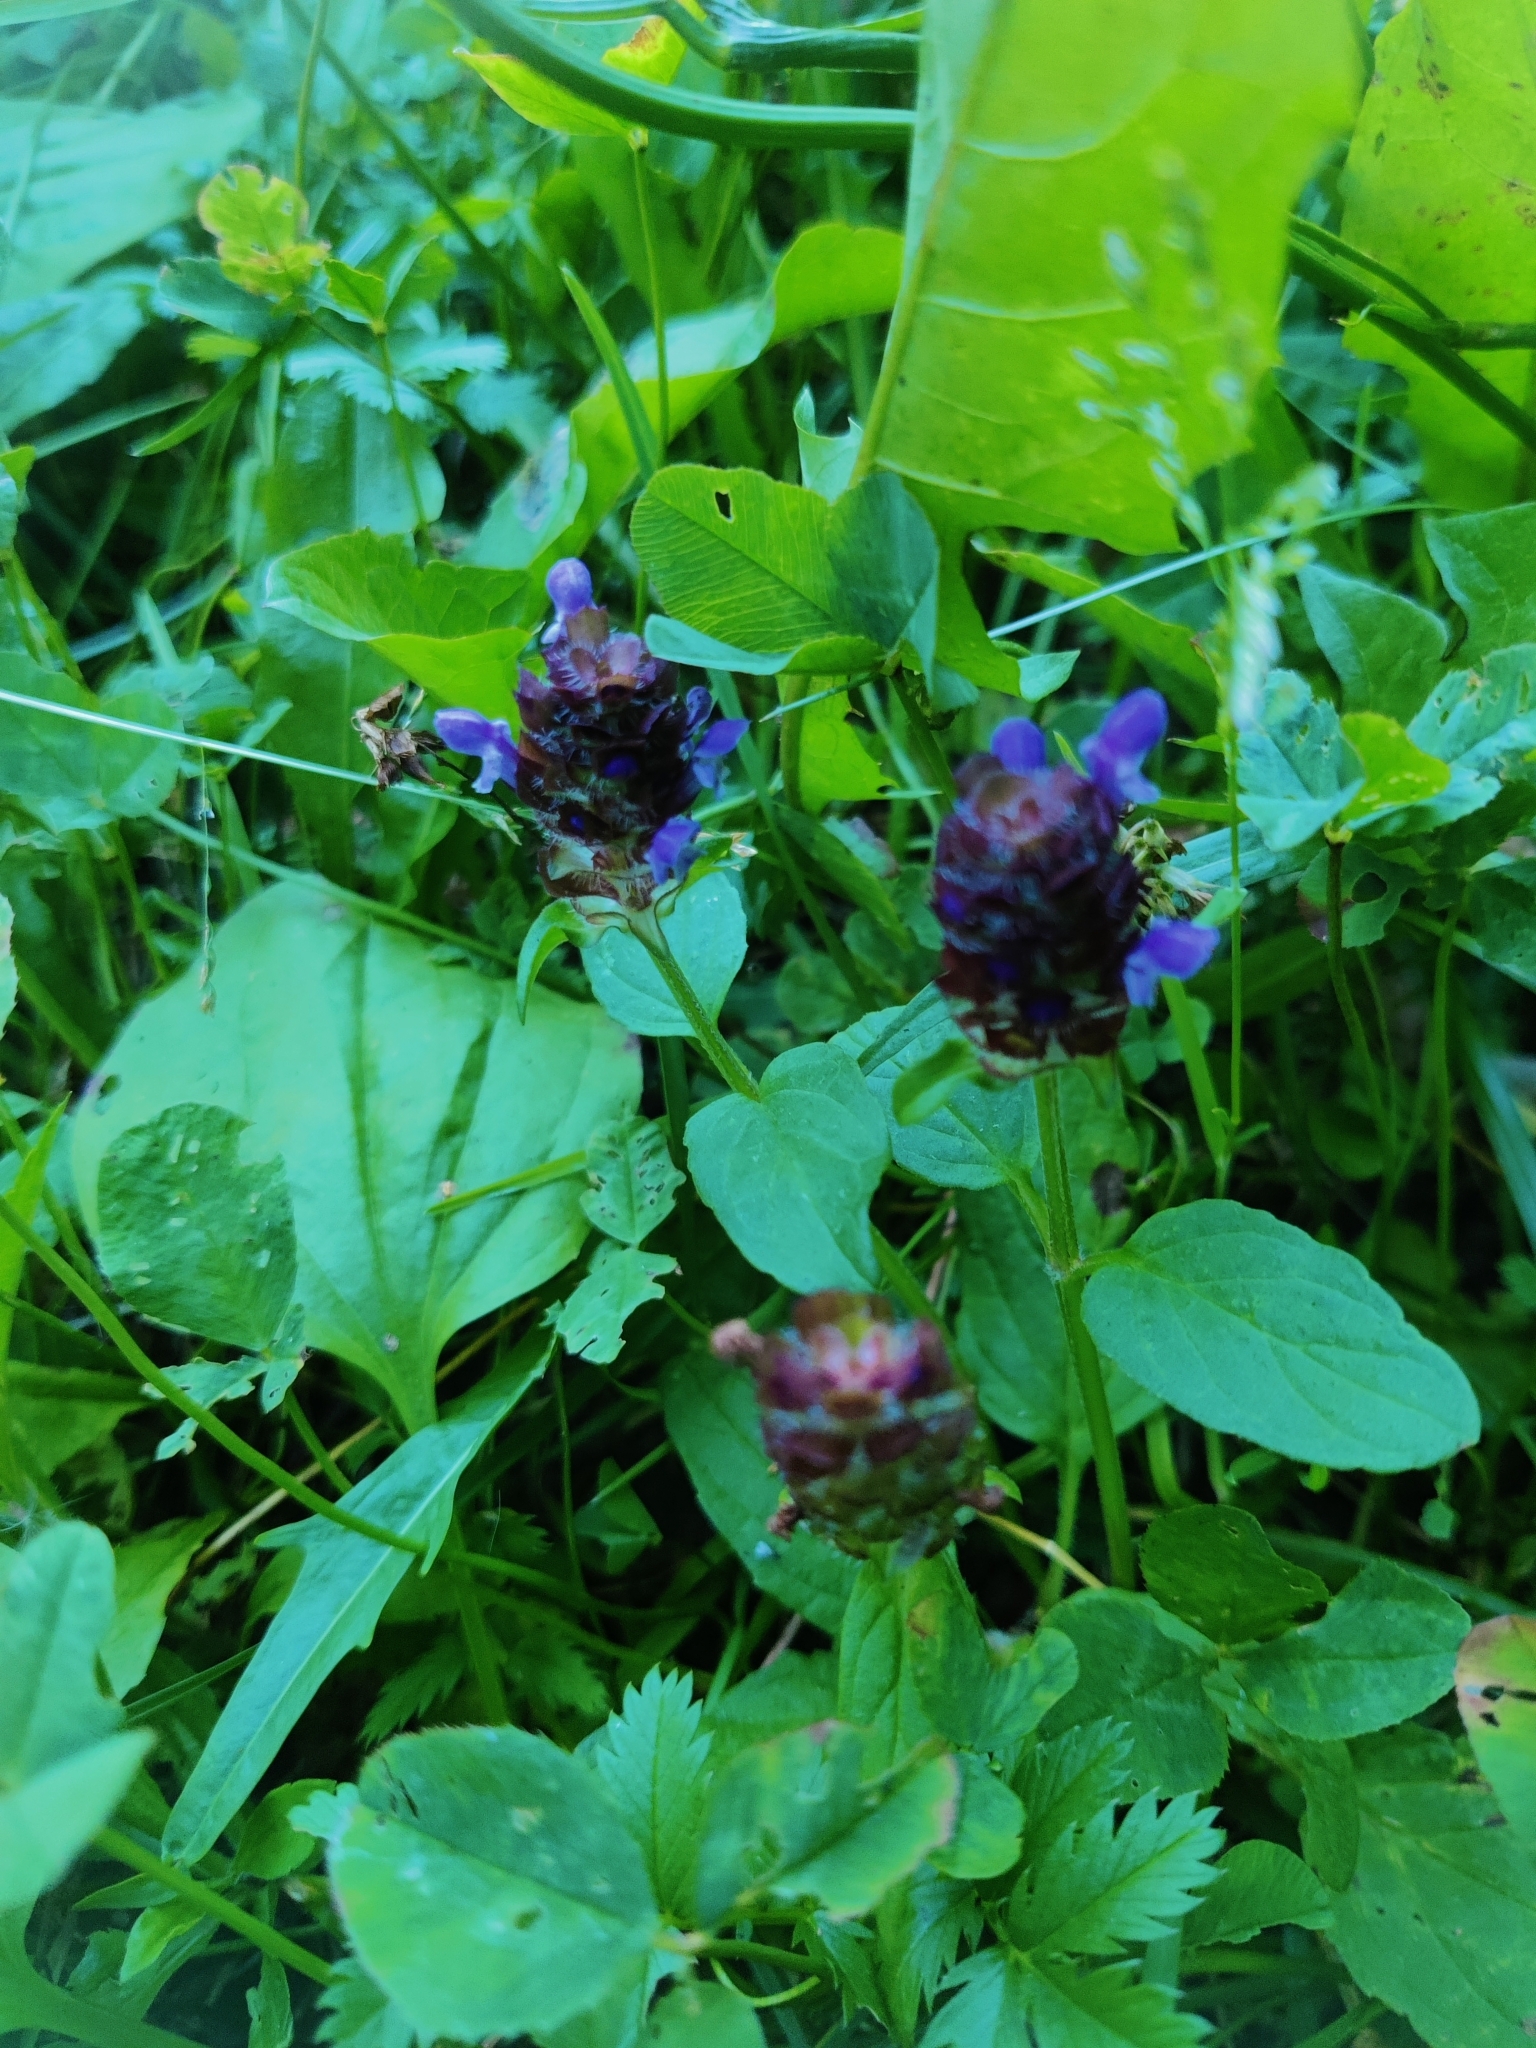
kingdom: Plantae
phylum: Tracheophyta
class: Magnoliopsida
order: Lamiales
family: Lamiaceae
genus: Prunella
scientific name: Prunella vulgaris
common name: Heal-all
